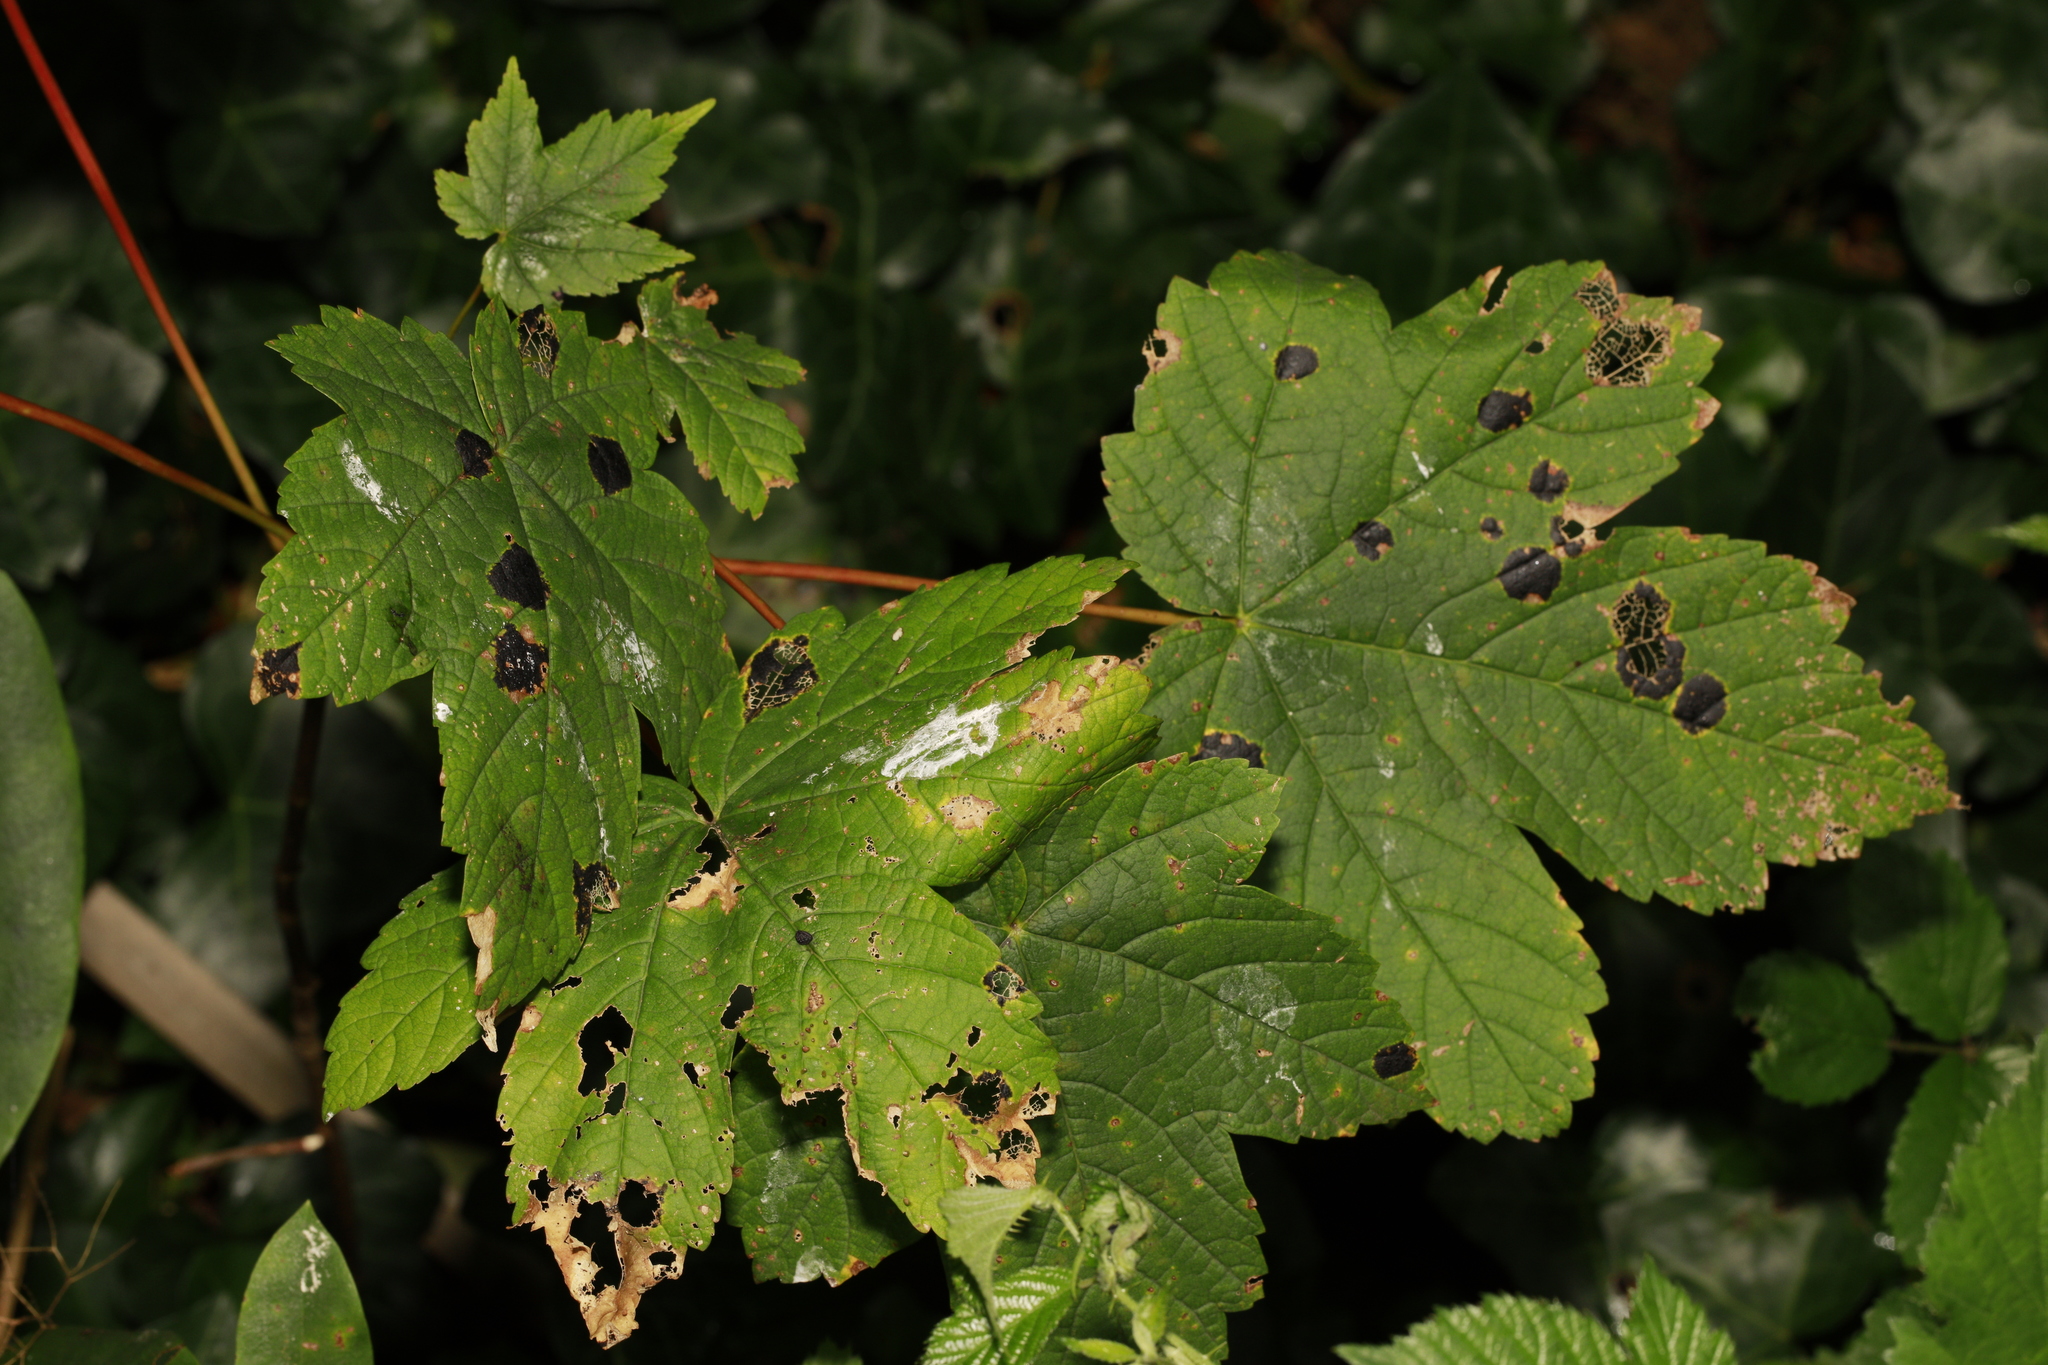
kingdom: Fungi
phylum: Ascomycota
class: Leotiomycetes
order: Rhytismatales
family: Rhytismataceae
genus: Rhytisma
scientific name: Rhytisma acerinum
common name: European tar spot
